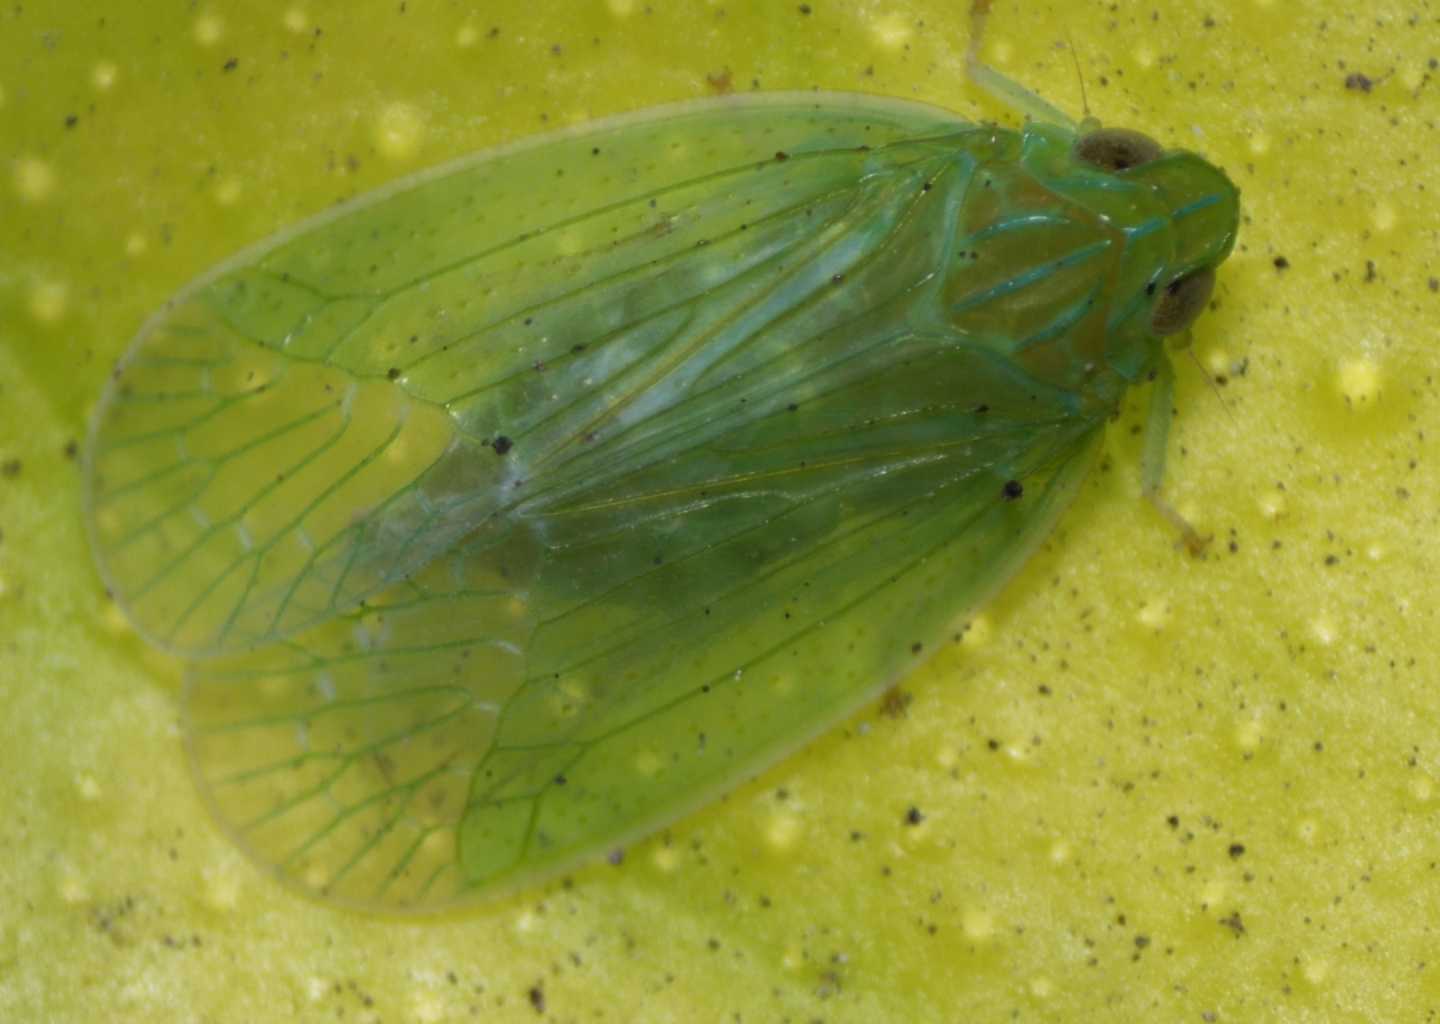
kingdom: Animalia
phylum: Arthropoda
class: Insecta
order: Hemiptera
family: Tropiduchidae
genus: Kallitaxila
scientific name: Kallitaxila granulata
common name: Planthopper
